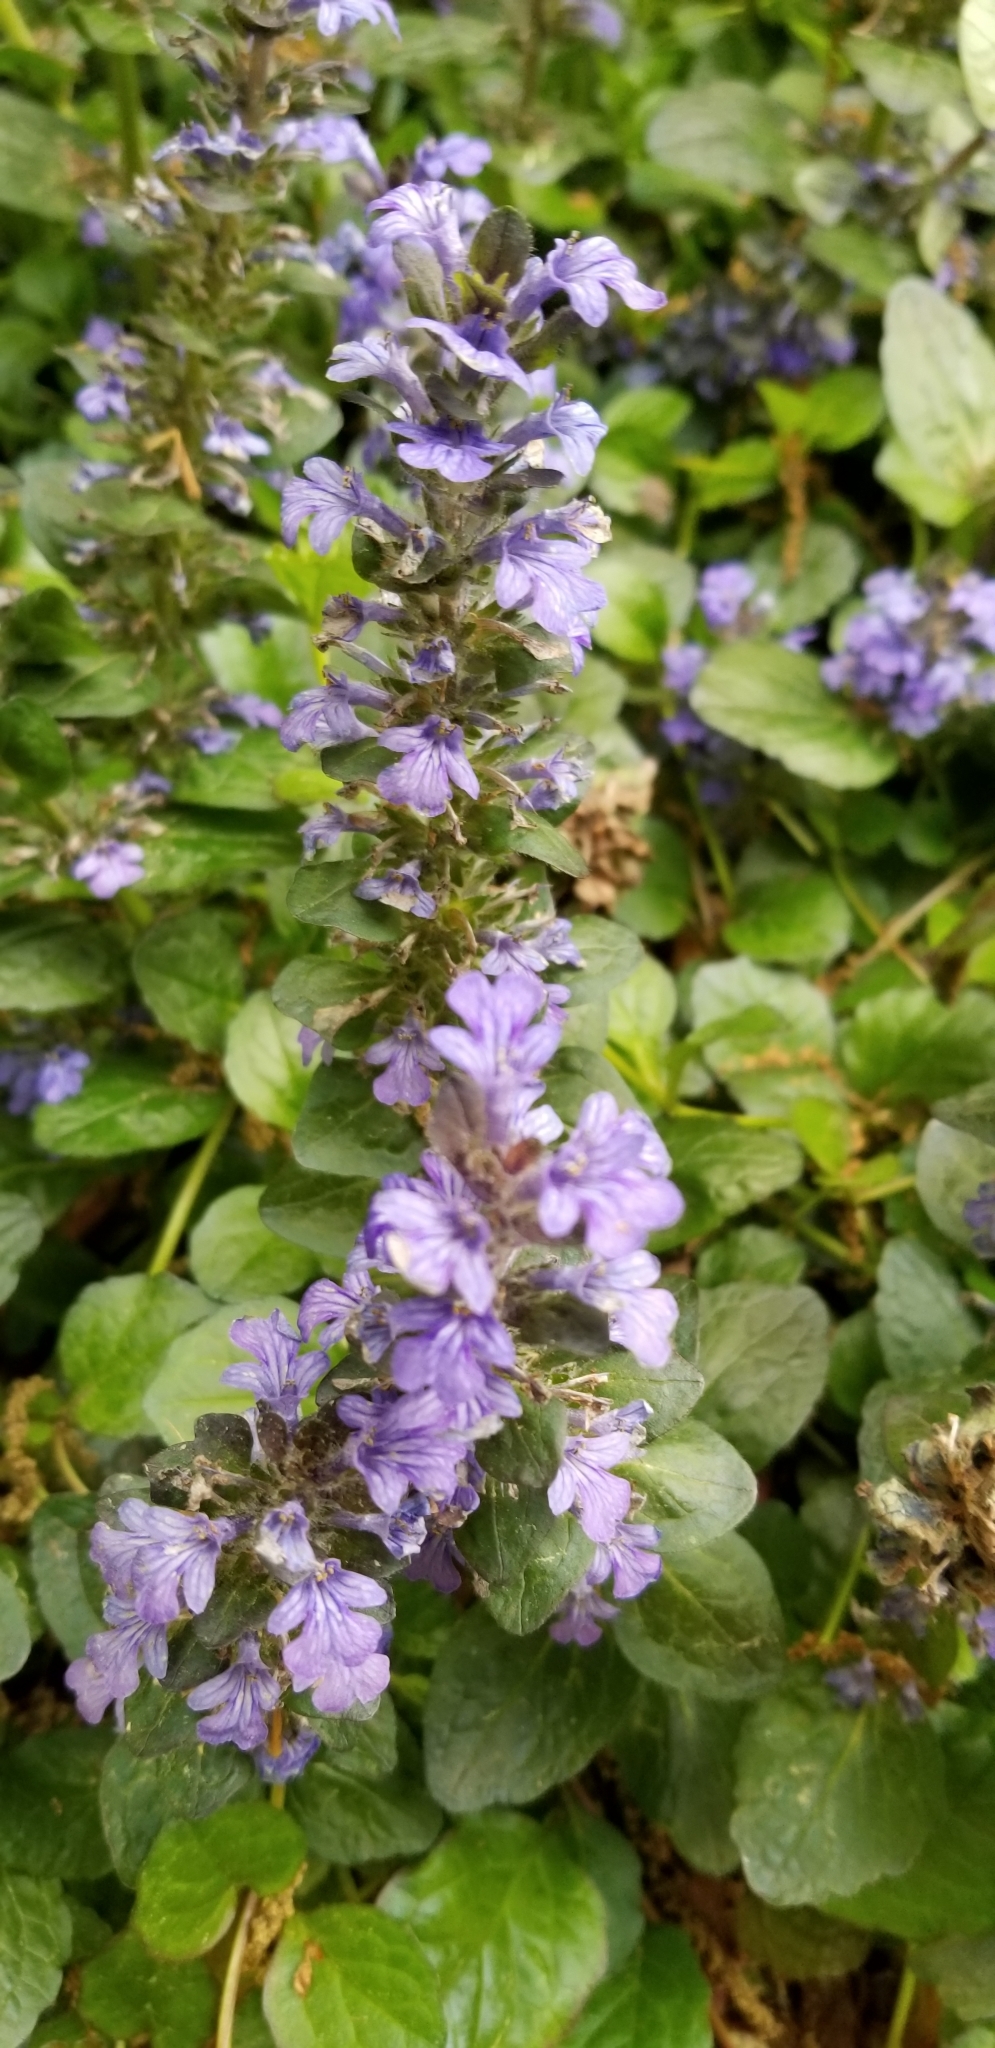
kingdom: Plantae
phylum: Tracheophyta
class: Magnoliopsida
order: Lamiales
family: Lamiaceae
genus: Ajuga
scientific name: Ajuga reptans
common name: Bugle
